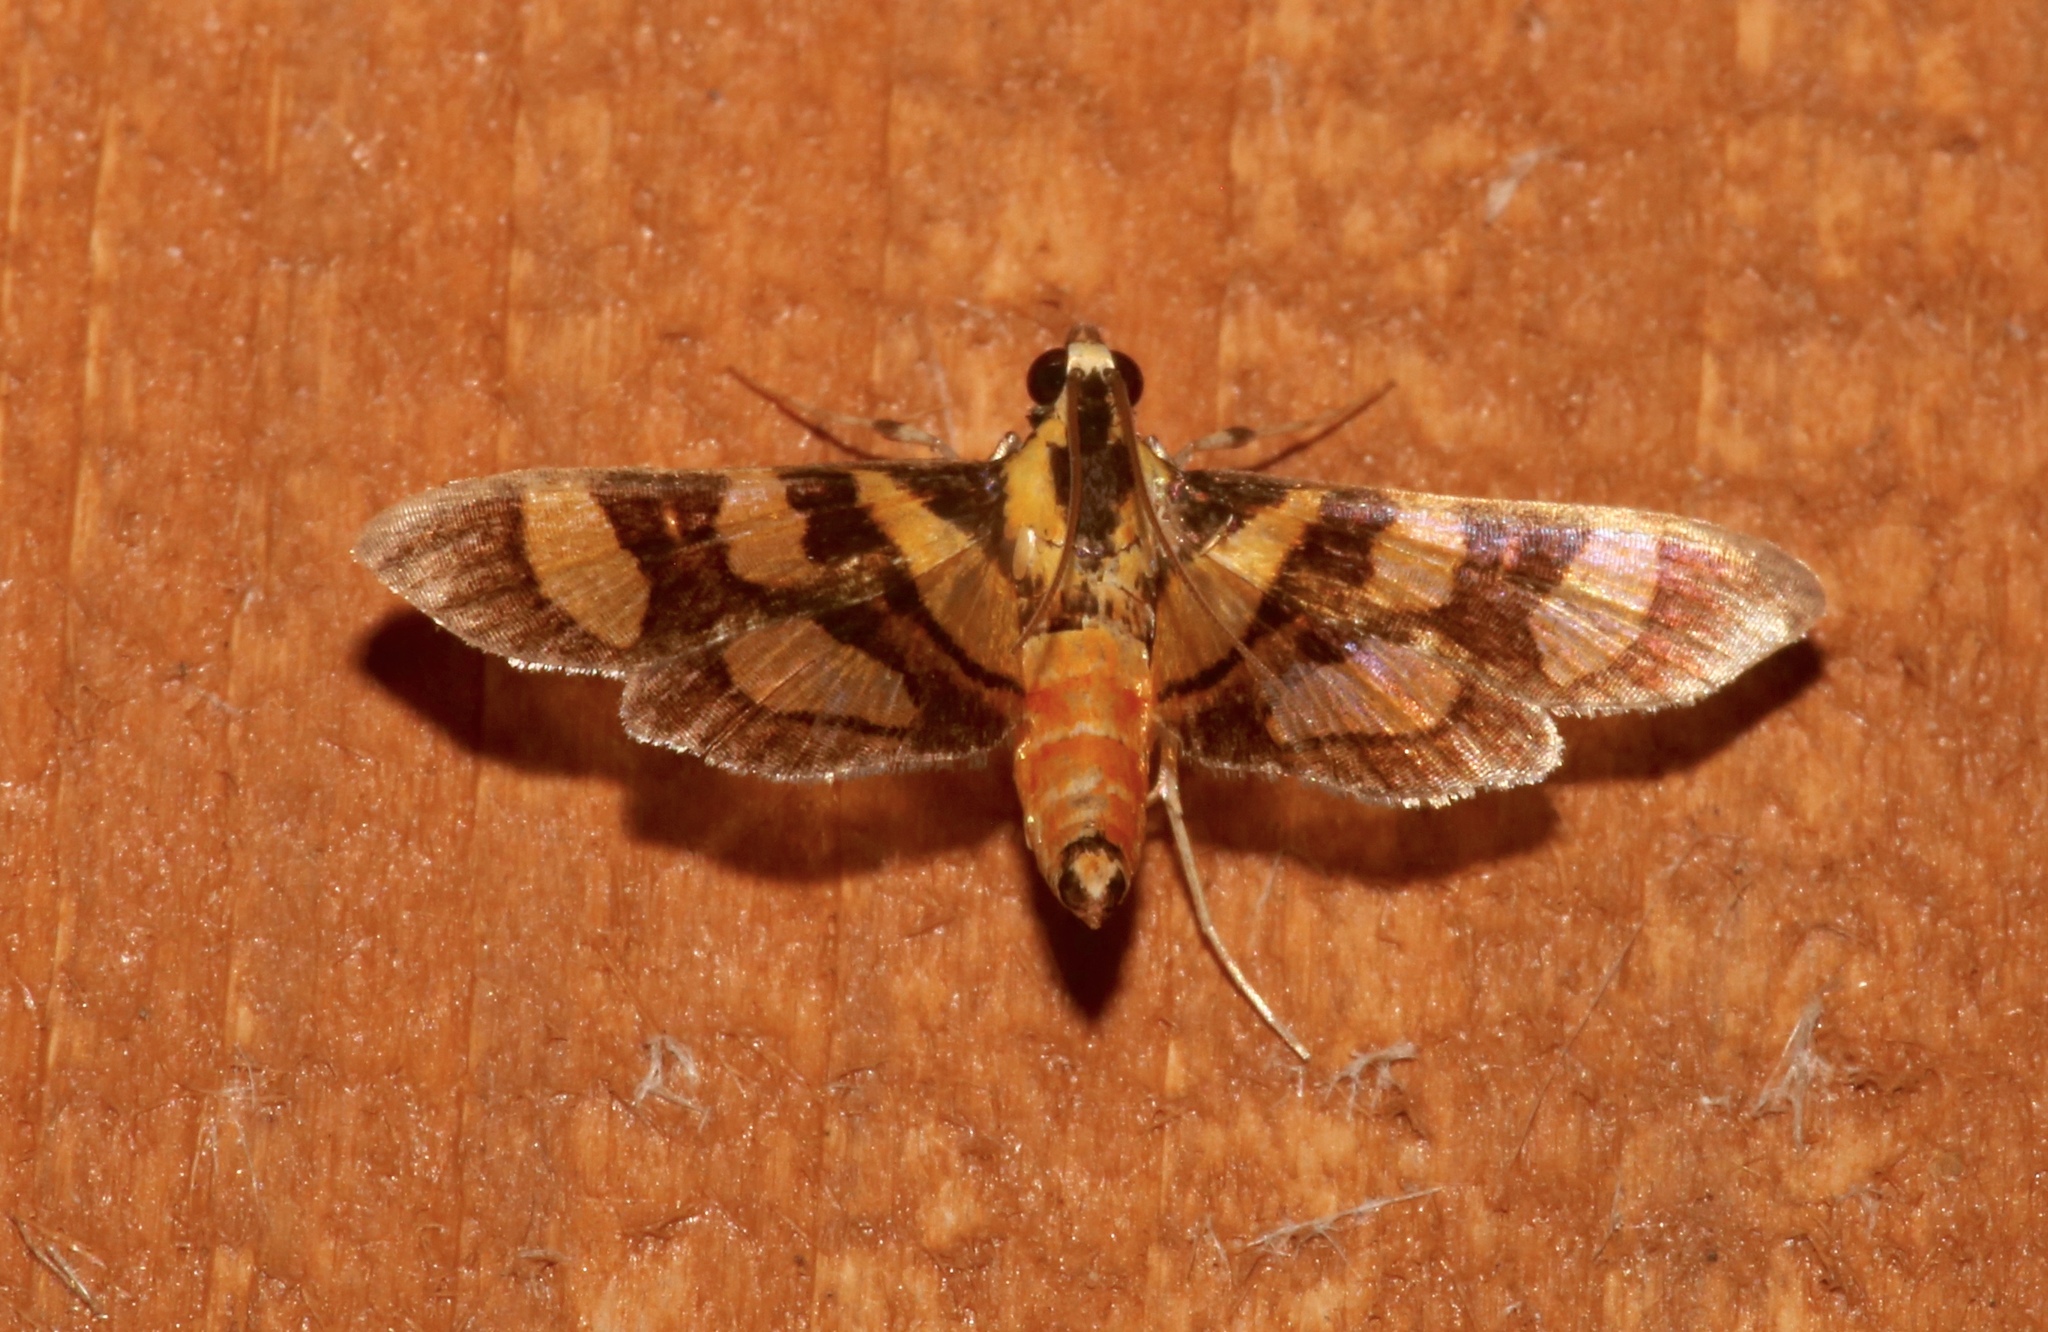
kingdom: Animalia
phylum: Arthropoda
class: Insecta
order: Lepidoptera
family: Crambidae
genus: Syngamia
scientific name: Syngamia florella
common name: Orange-spotted flower moth
